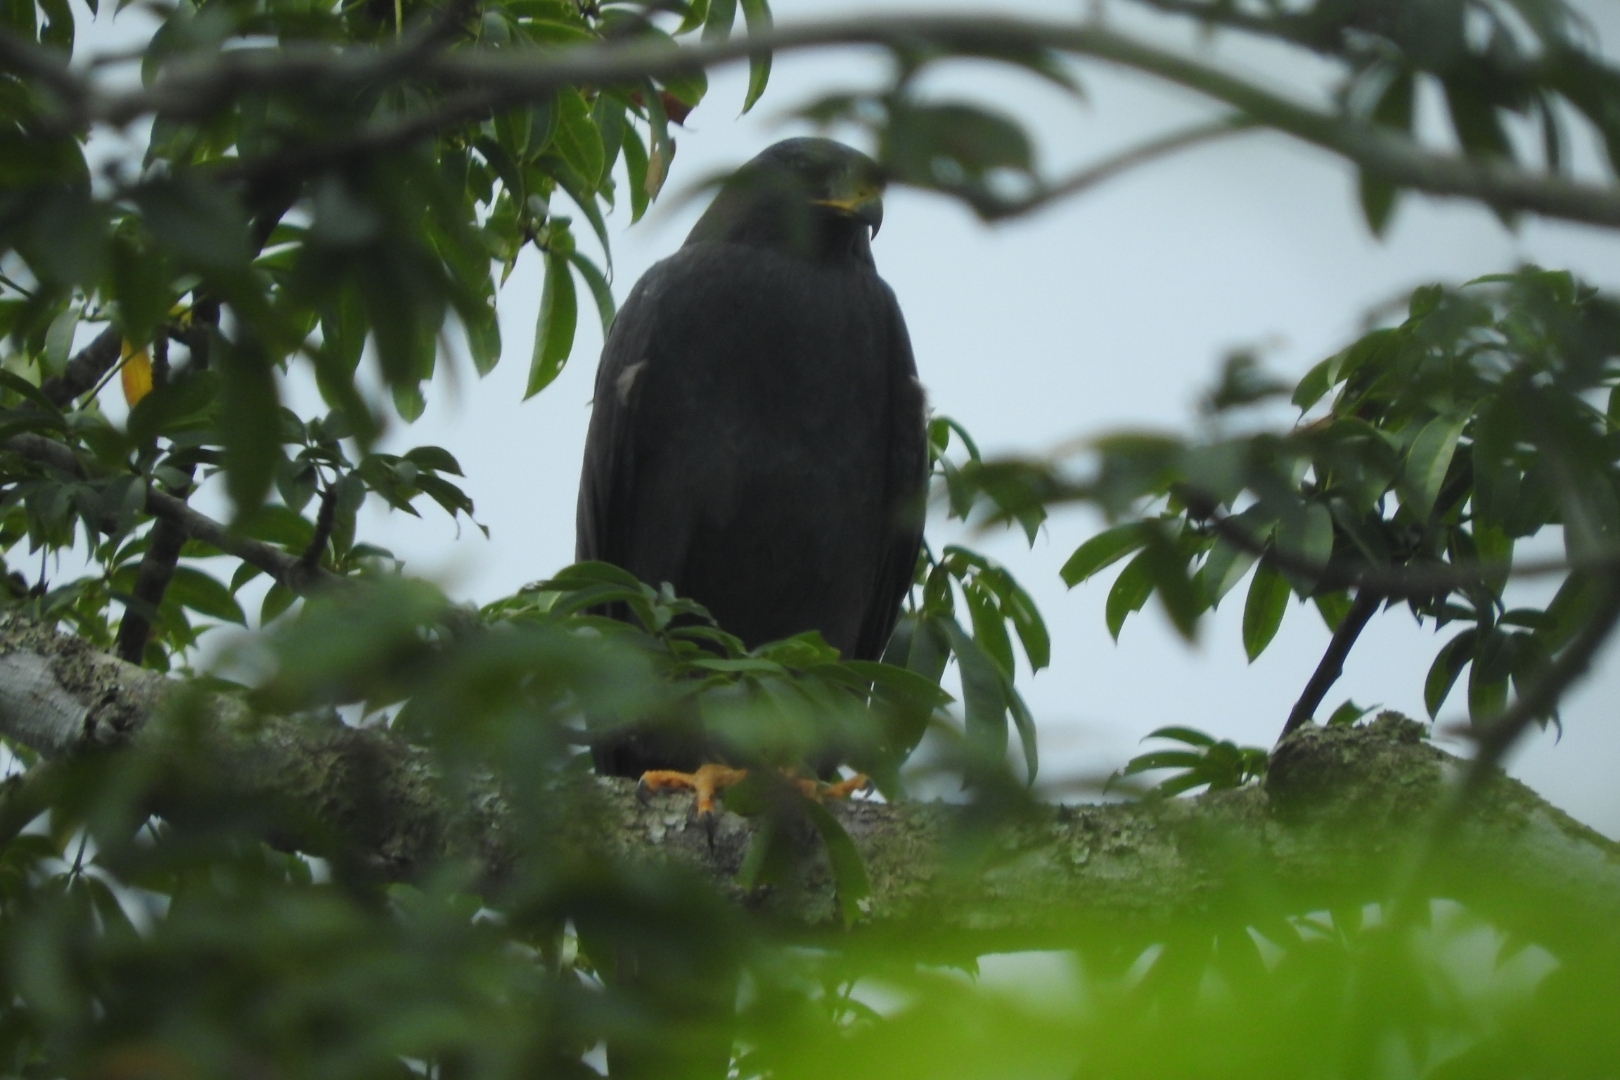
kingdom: Animalia
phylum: Chordata
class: Aves
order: Accipitriformes
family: Accipitridae
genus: Buteo
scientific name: Buteo albonotatus
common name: Zone-tailed hawk
